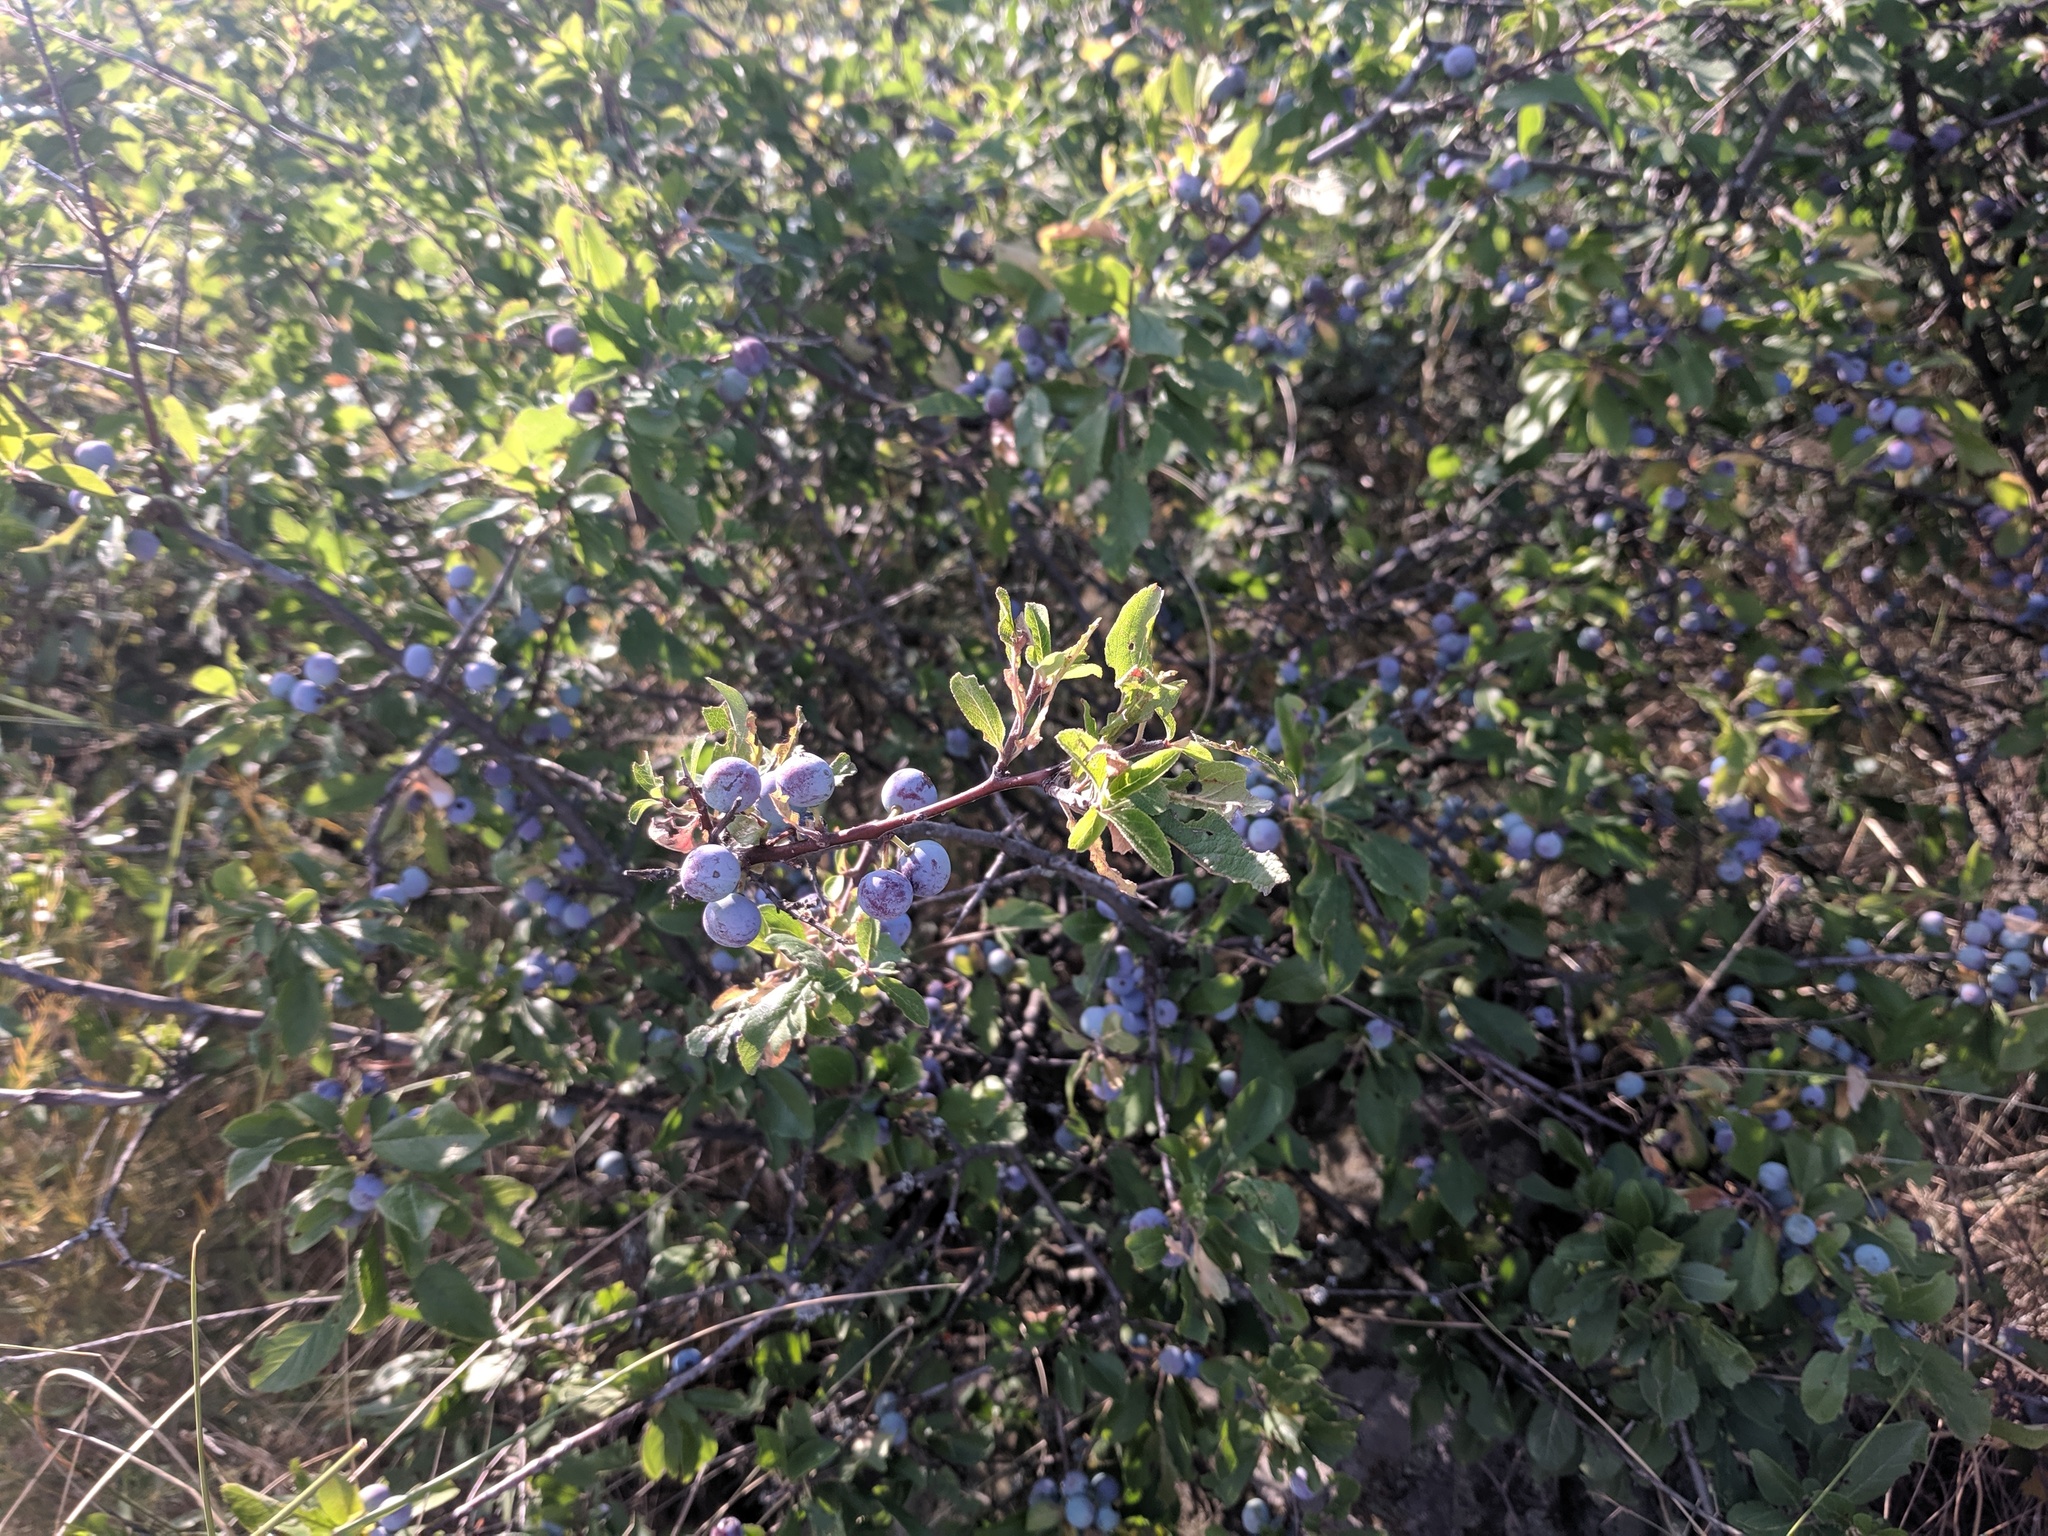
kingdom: Plantae
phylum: Tracheophyta
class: Magnoliopsida
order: Rosales
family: Rosaceae
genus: Prunus
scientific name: Prunus spinosa
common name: Blackthorn
